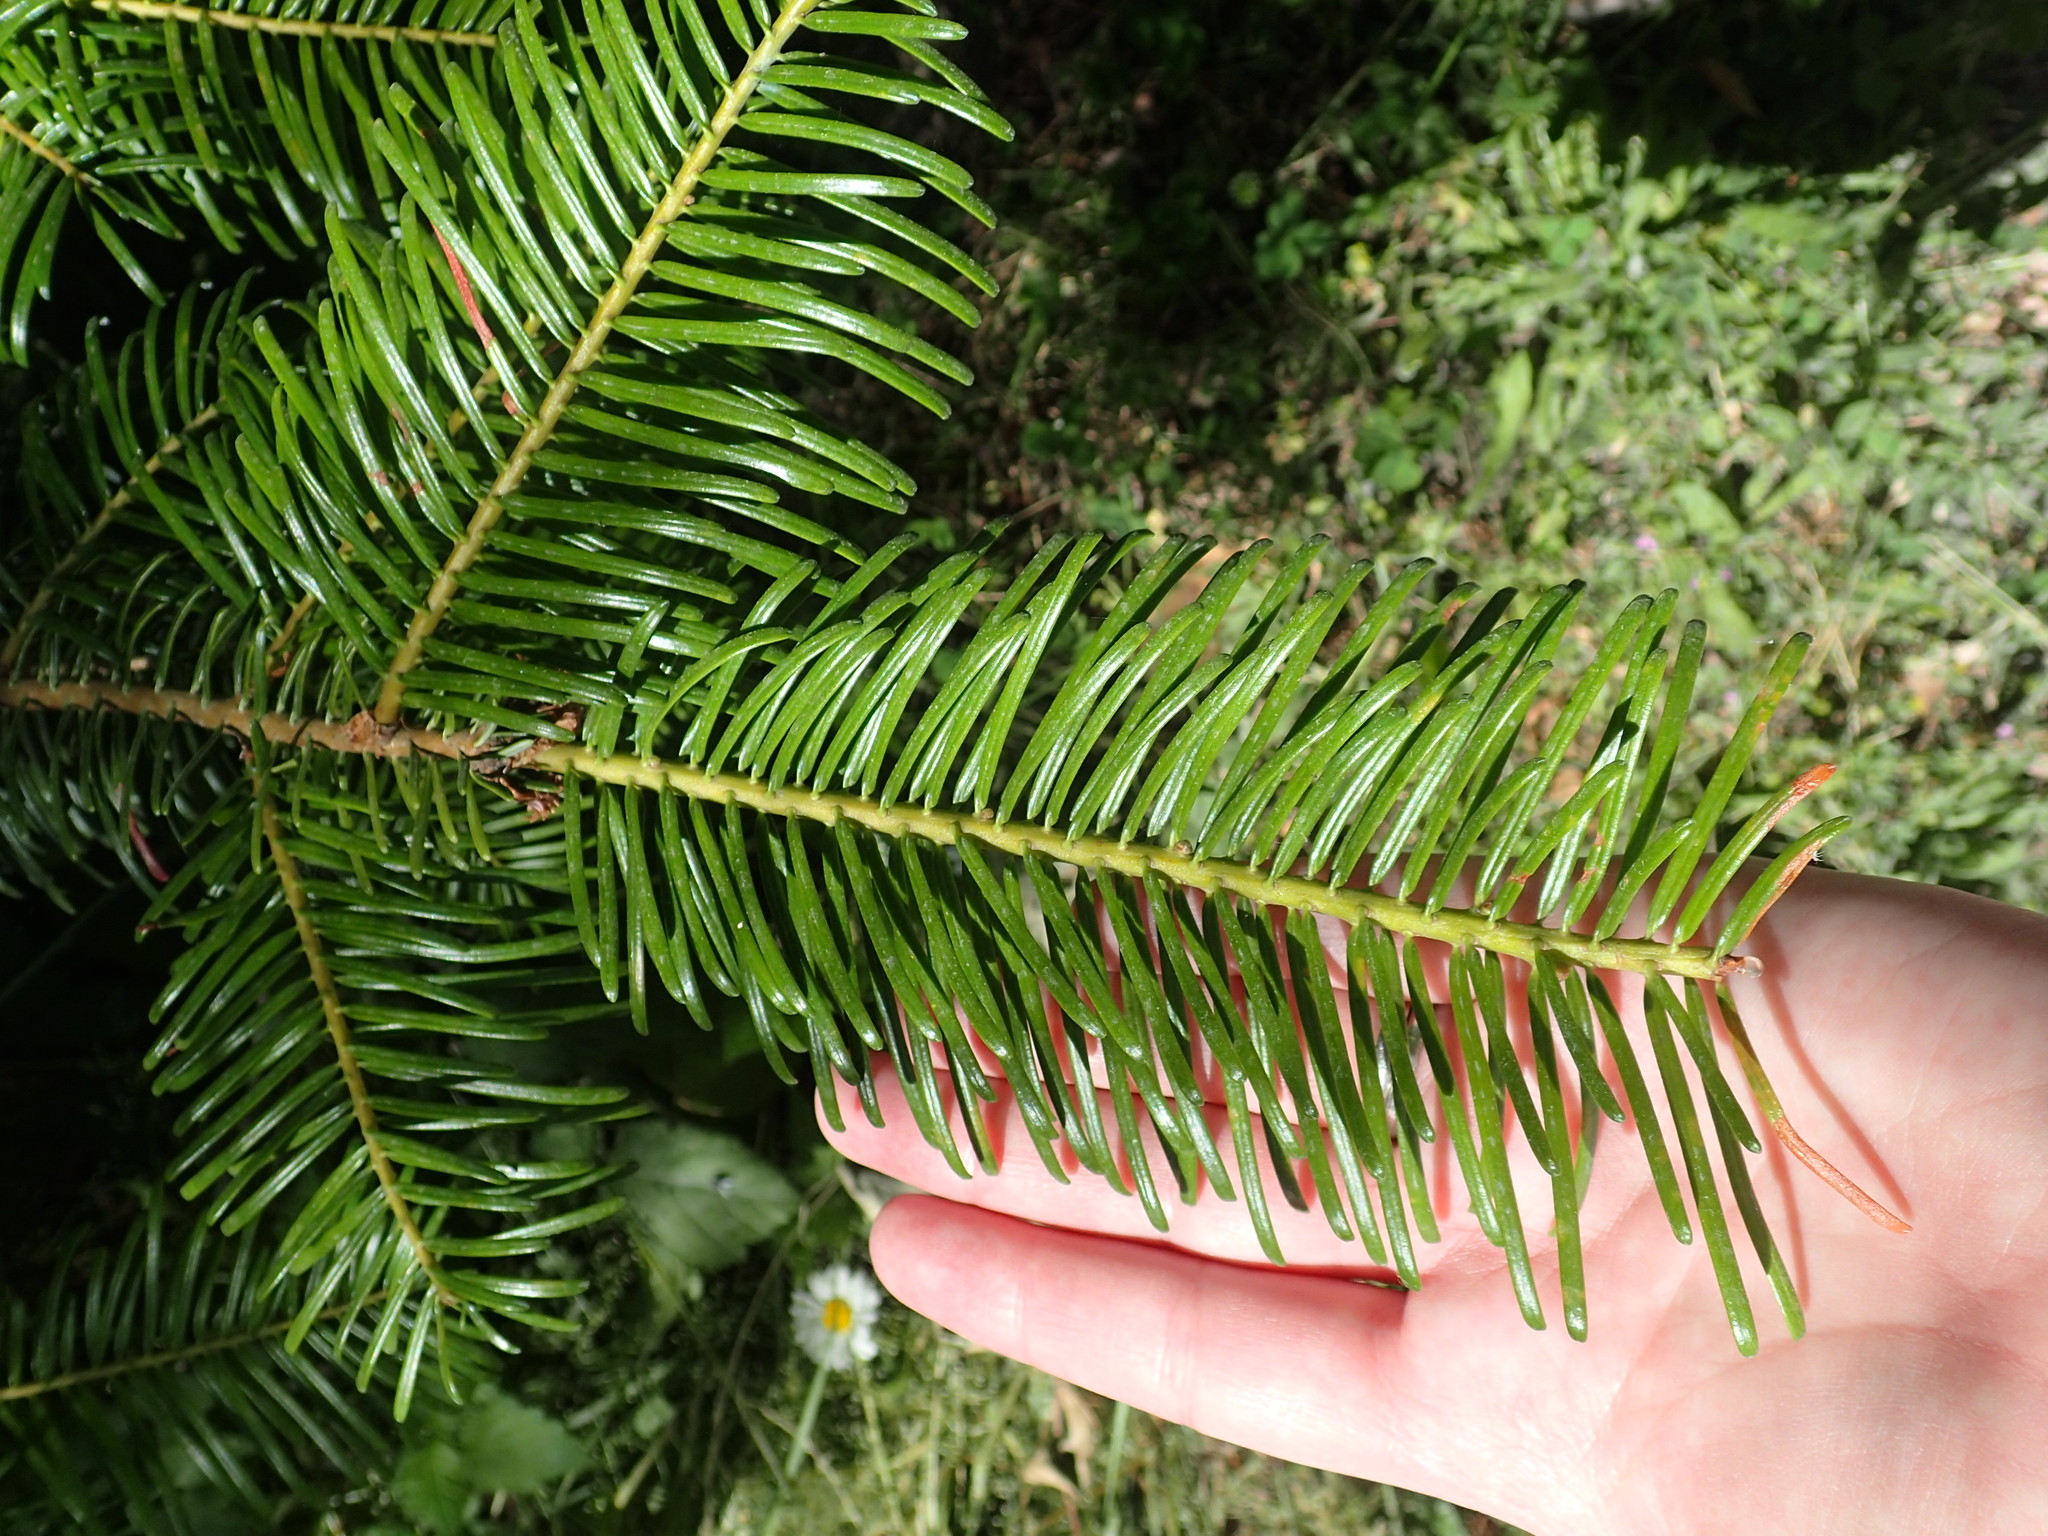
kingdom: Plantae
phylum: Tracheophyta
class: Pinopsida
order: Pinales
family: Pinaceae
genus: Abies
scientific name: Abies grandis
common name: Giant fir
